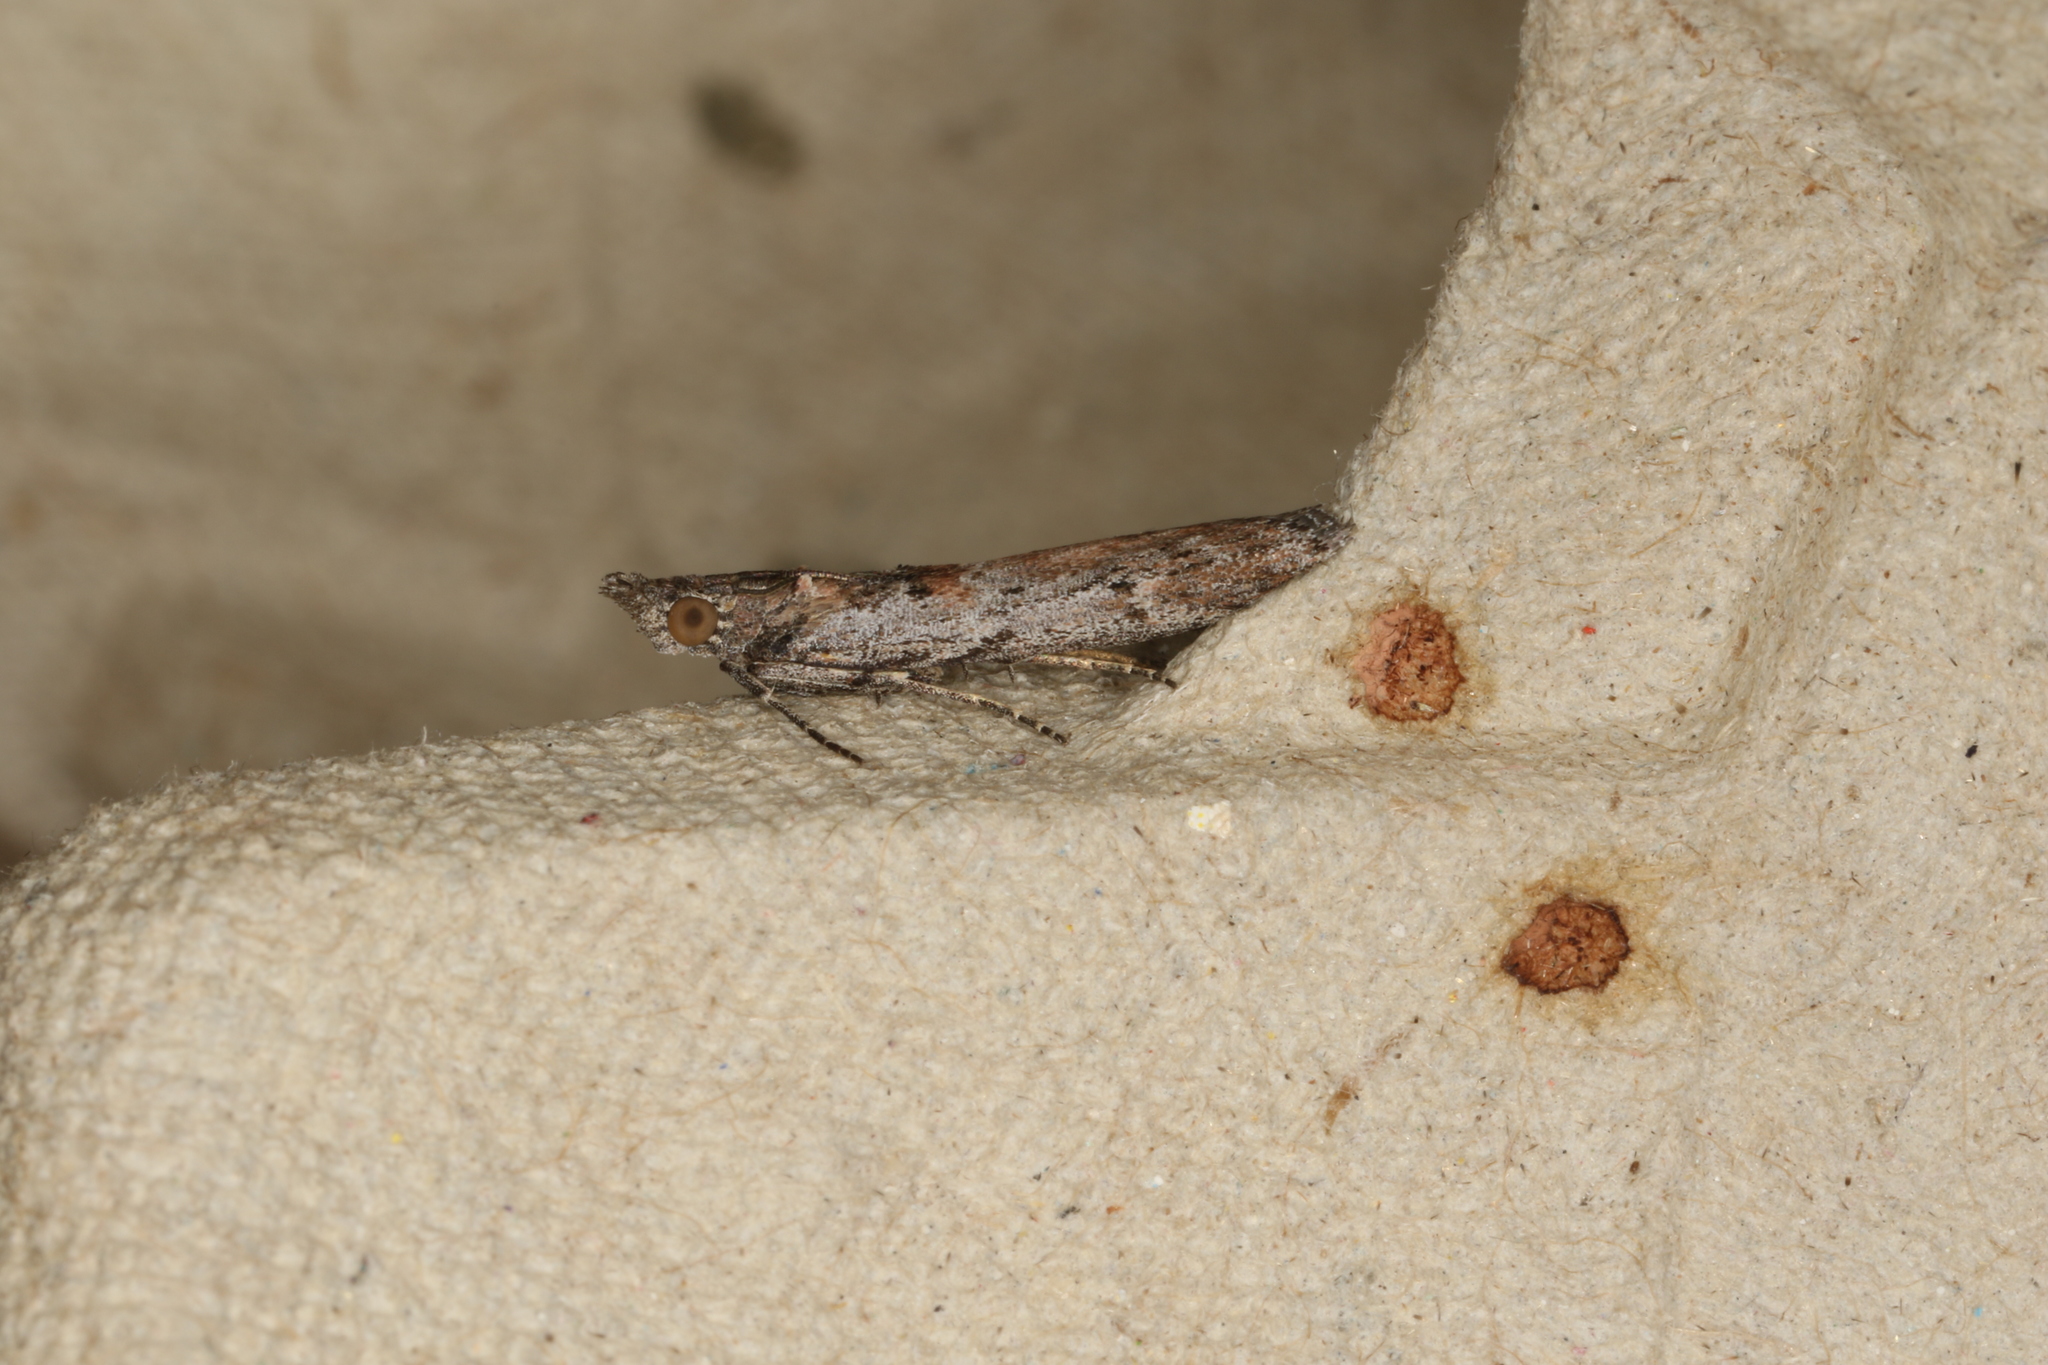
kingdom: Animalia
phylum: Arthropoda
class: Insecta
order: Lepidoptera
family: Pyralidae
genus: Crocydopora
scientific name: Crocydopora cinigerella
